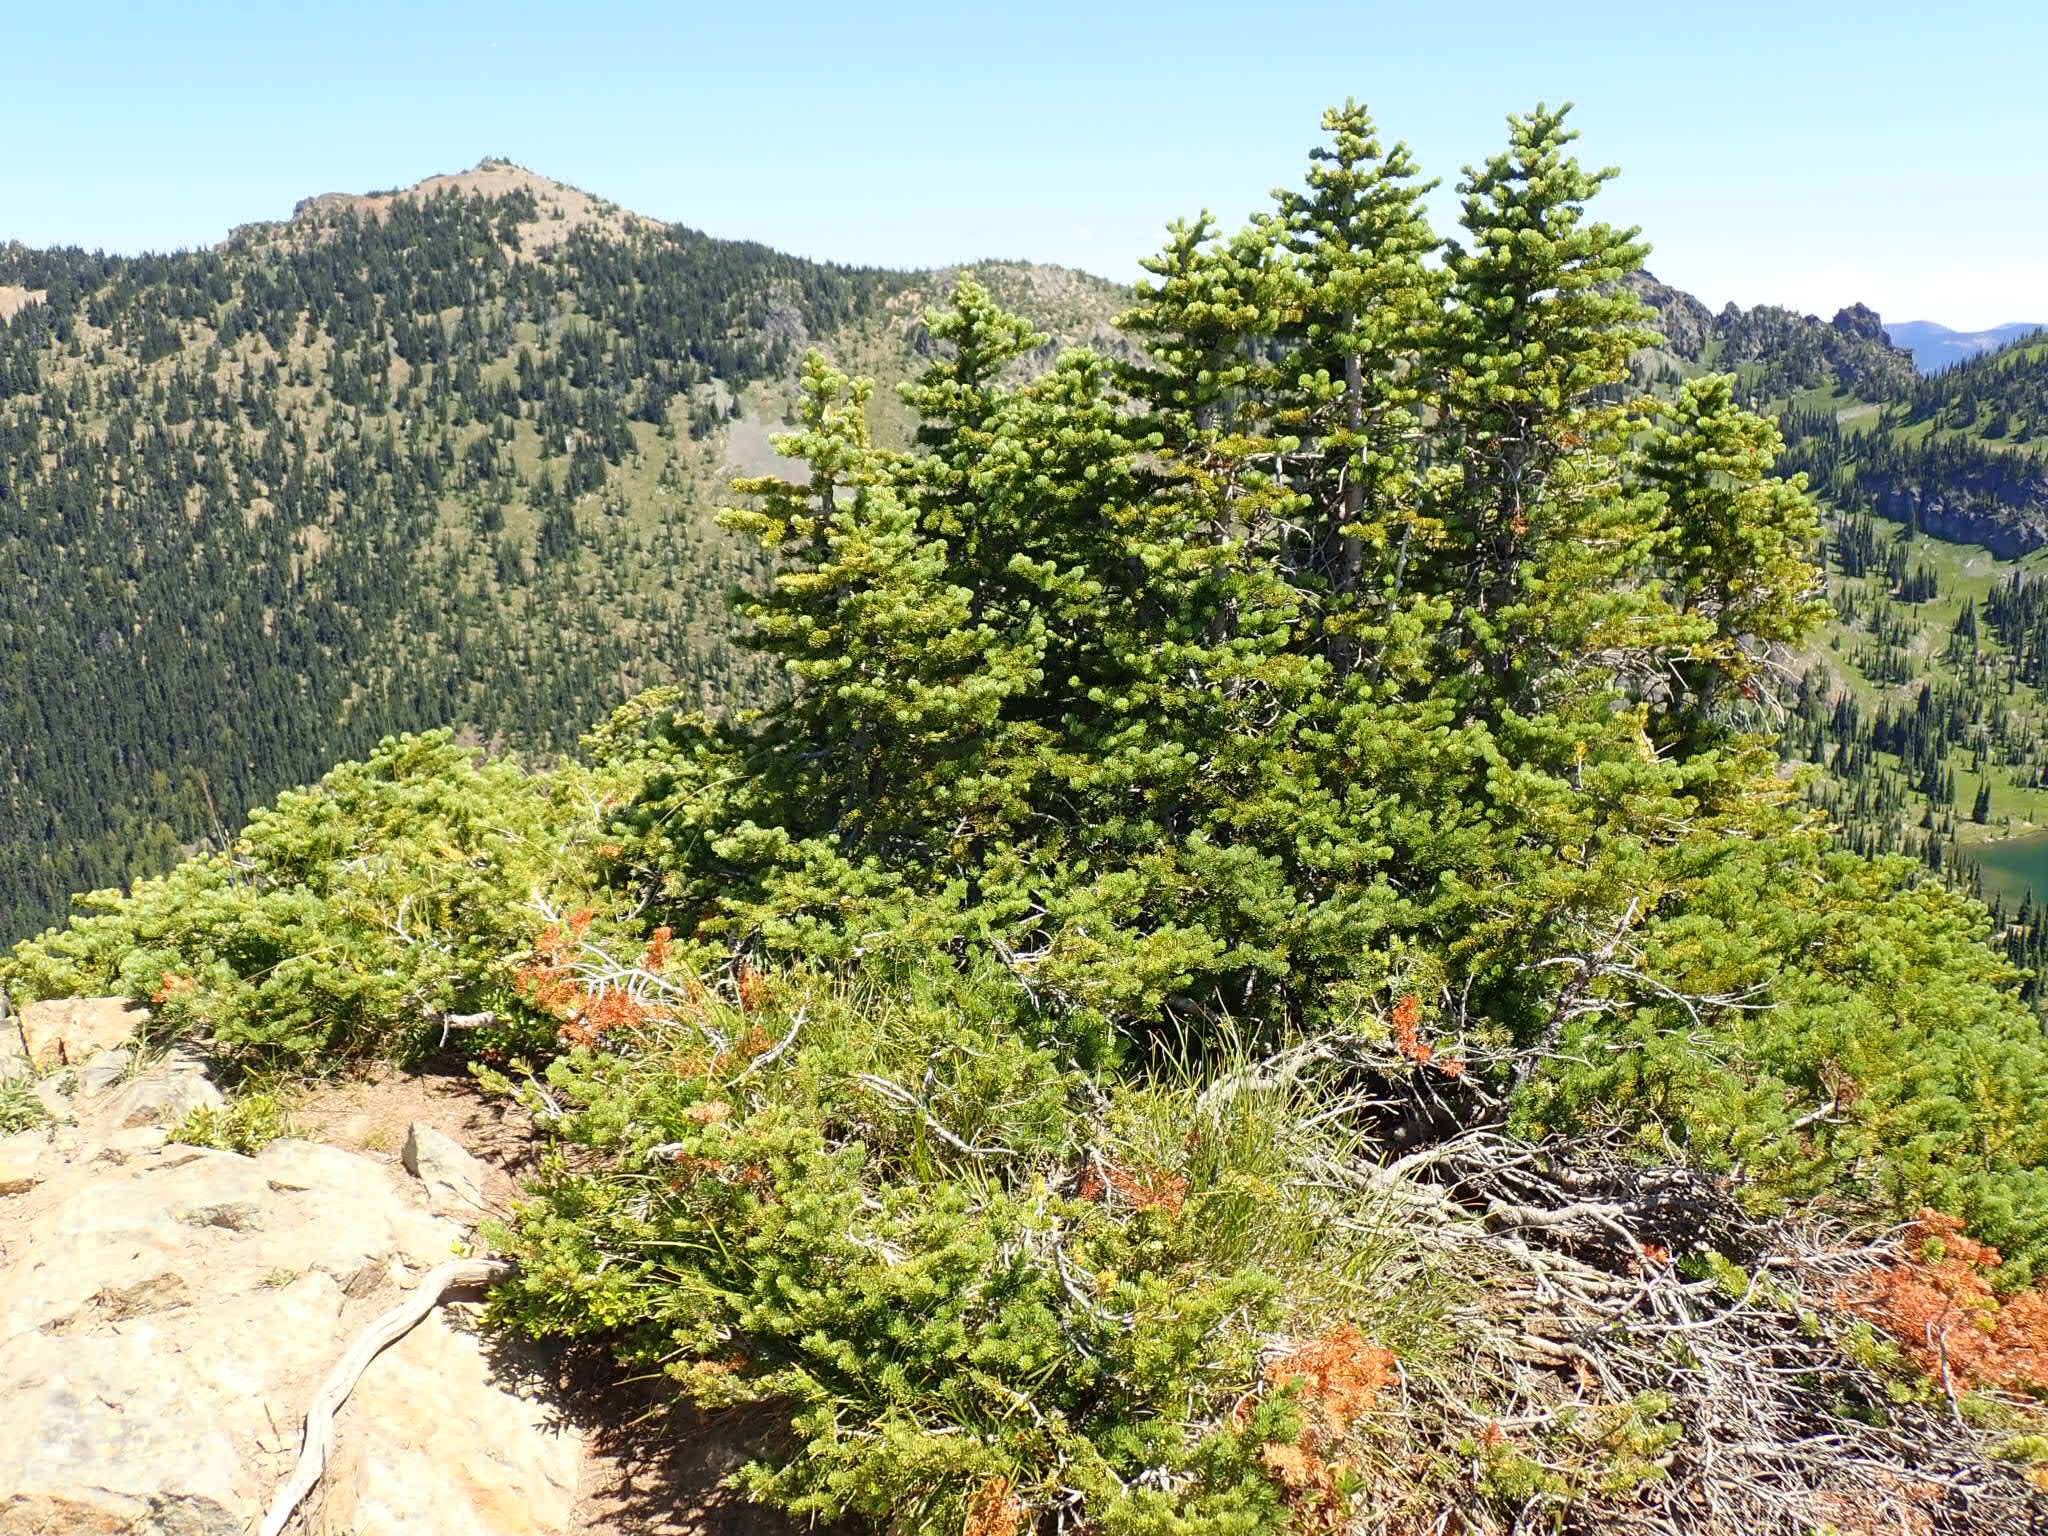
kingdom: Plantae
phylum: Tracheophyta
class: Pinopsida
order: Pinales
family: Pinaceae
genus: Abies
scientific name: Abies lasiocarpa
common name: Subalpine fir
